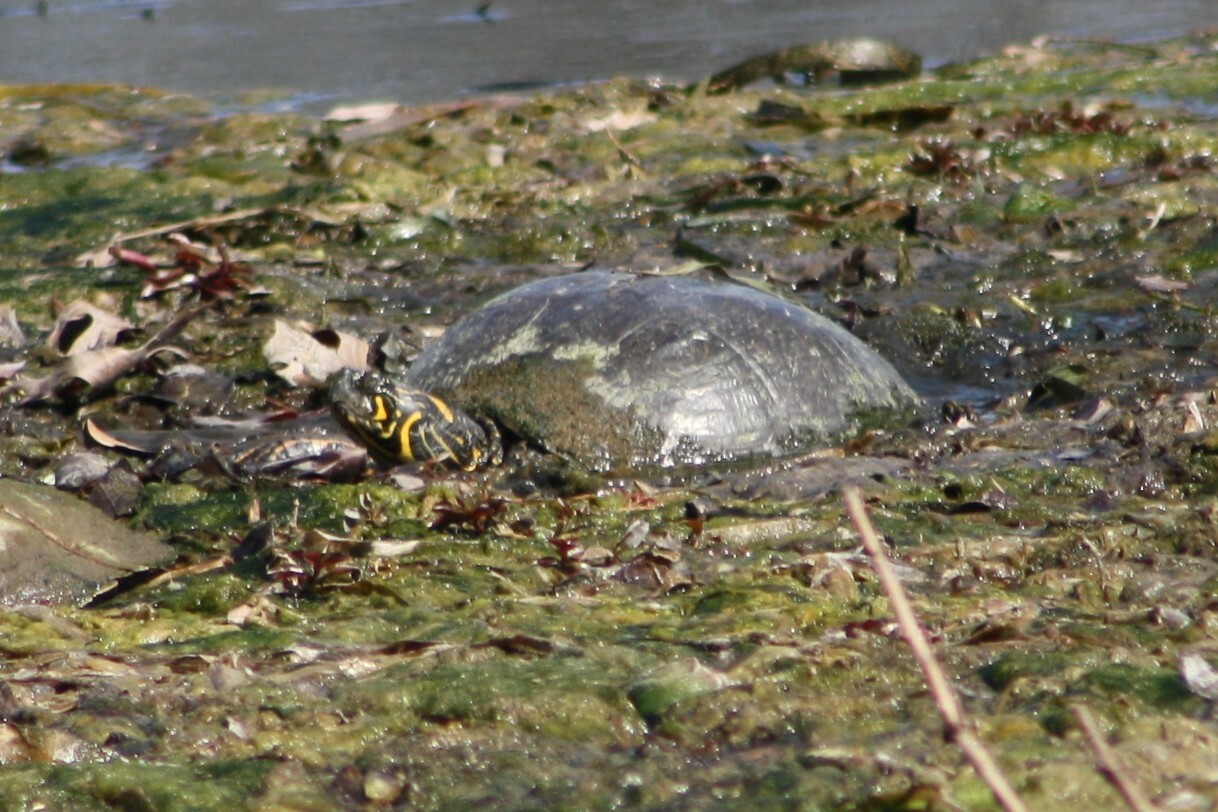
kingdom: Animalia
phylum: Chordata
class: Testudines
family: Emydidae
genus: Pseudemys
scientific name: Pseudemys texana
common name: Texas river cooter
